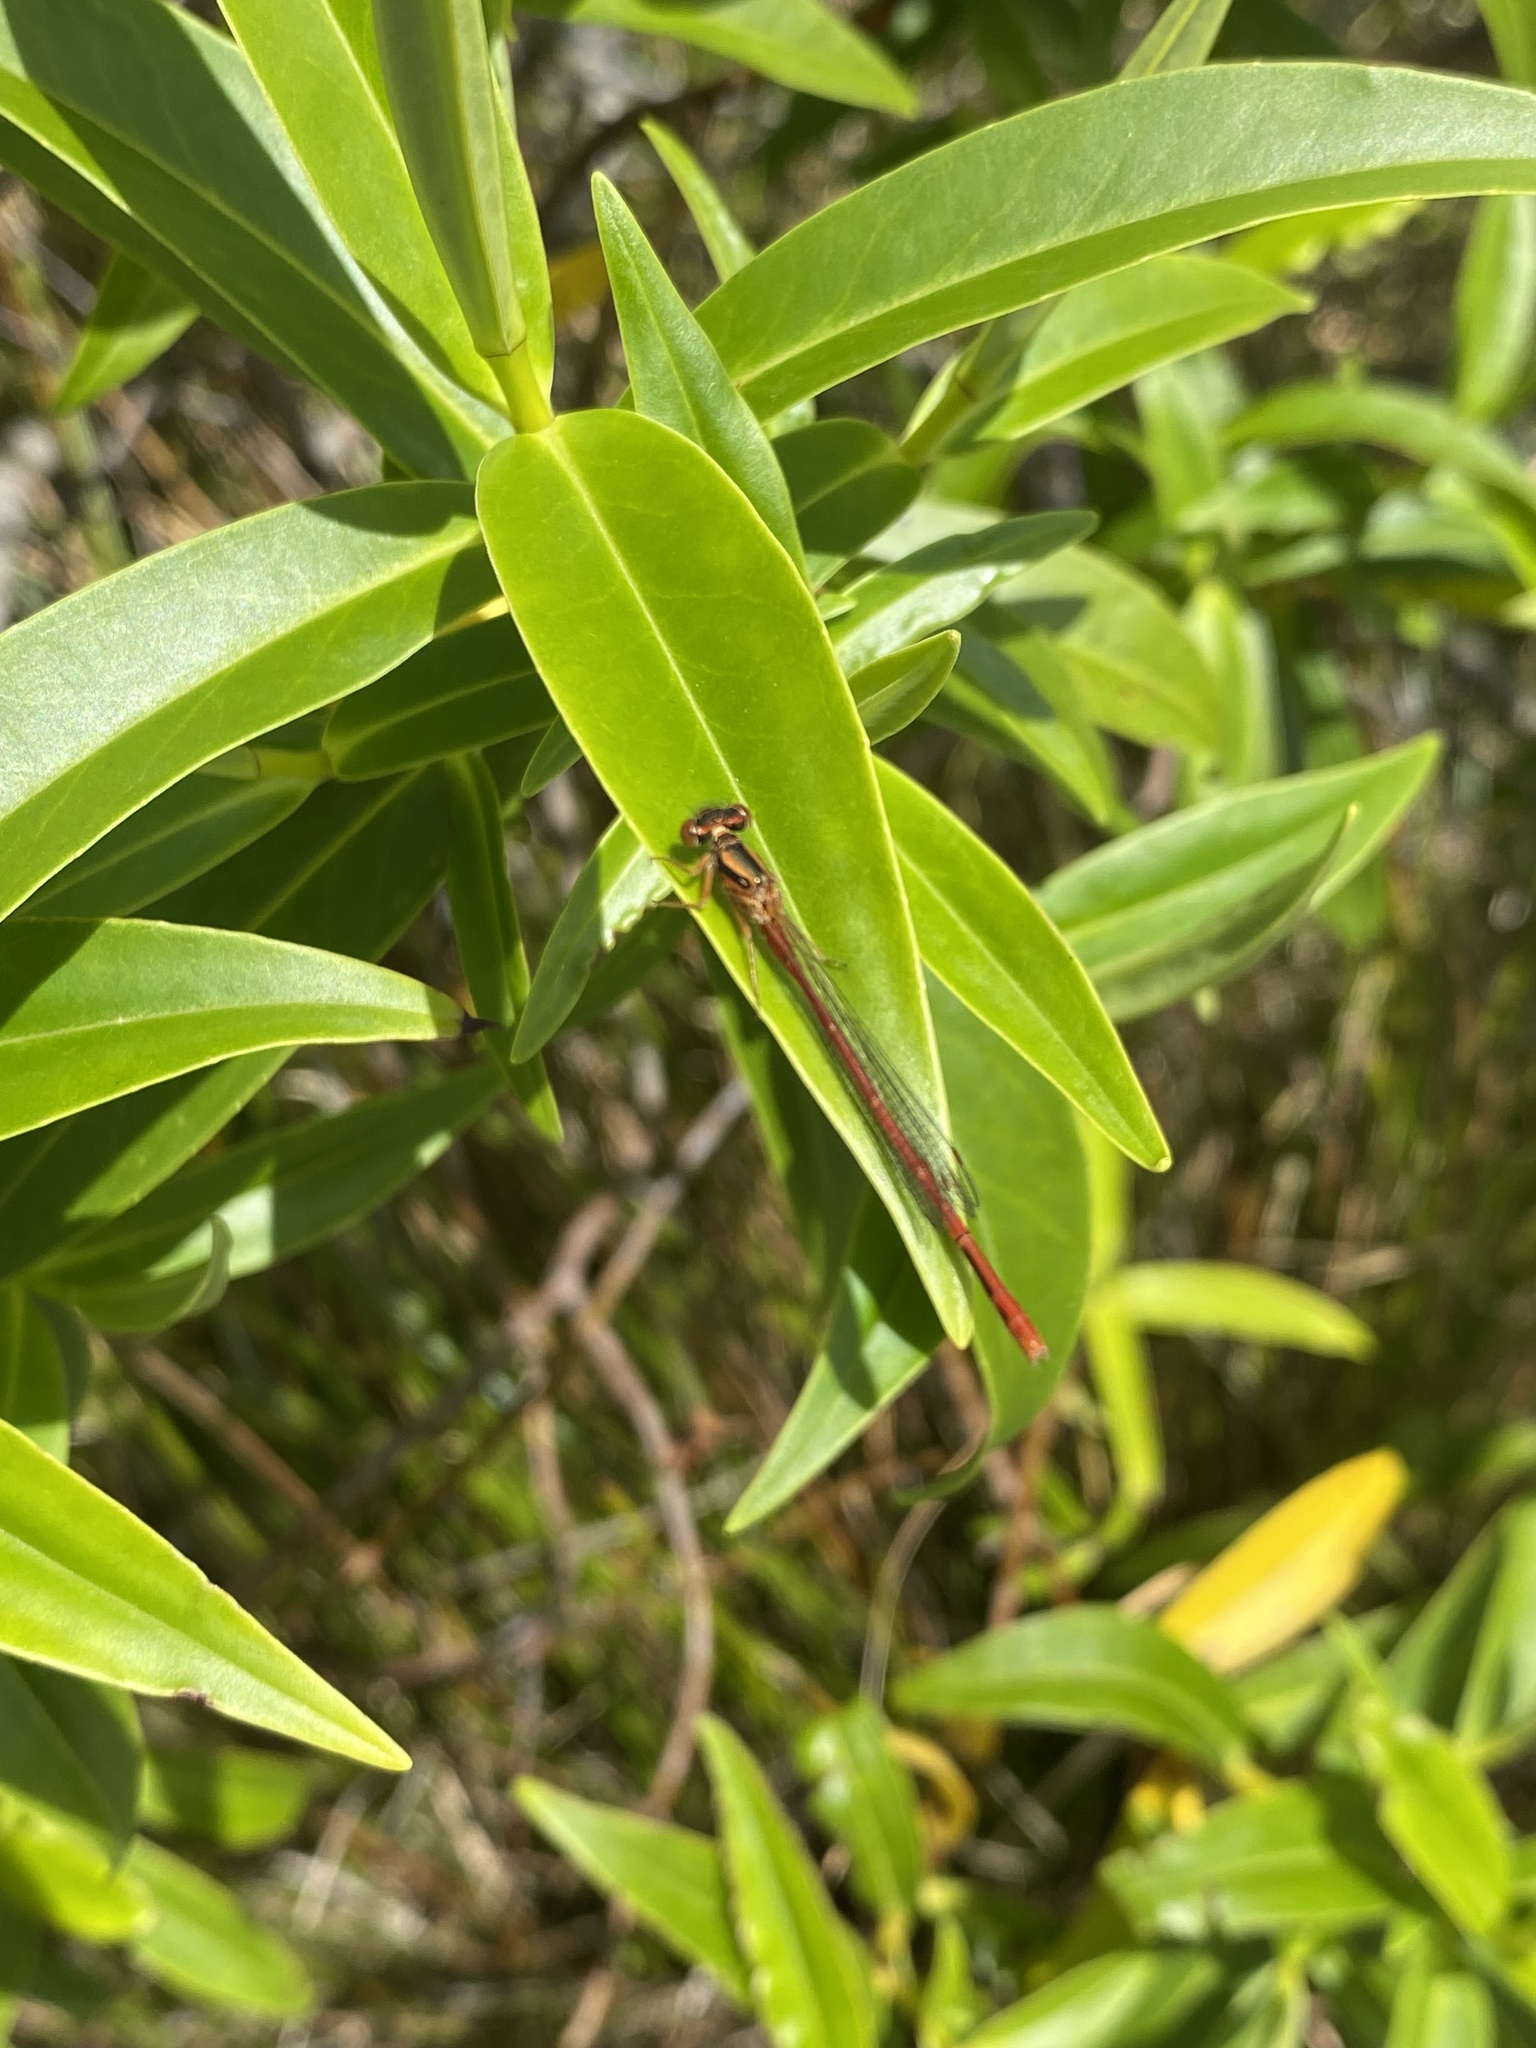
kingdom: Animalia
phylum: Arthropoda
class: Insecta
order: Odonata
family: Coenagrionidae
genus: Xanthocnemis
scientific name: Xanthocnemis zealandica
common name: Common redcoat damselfly
